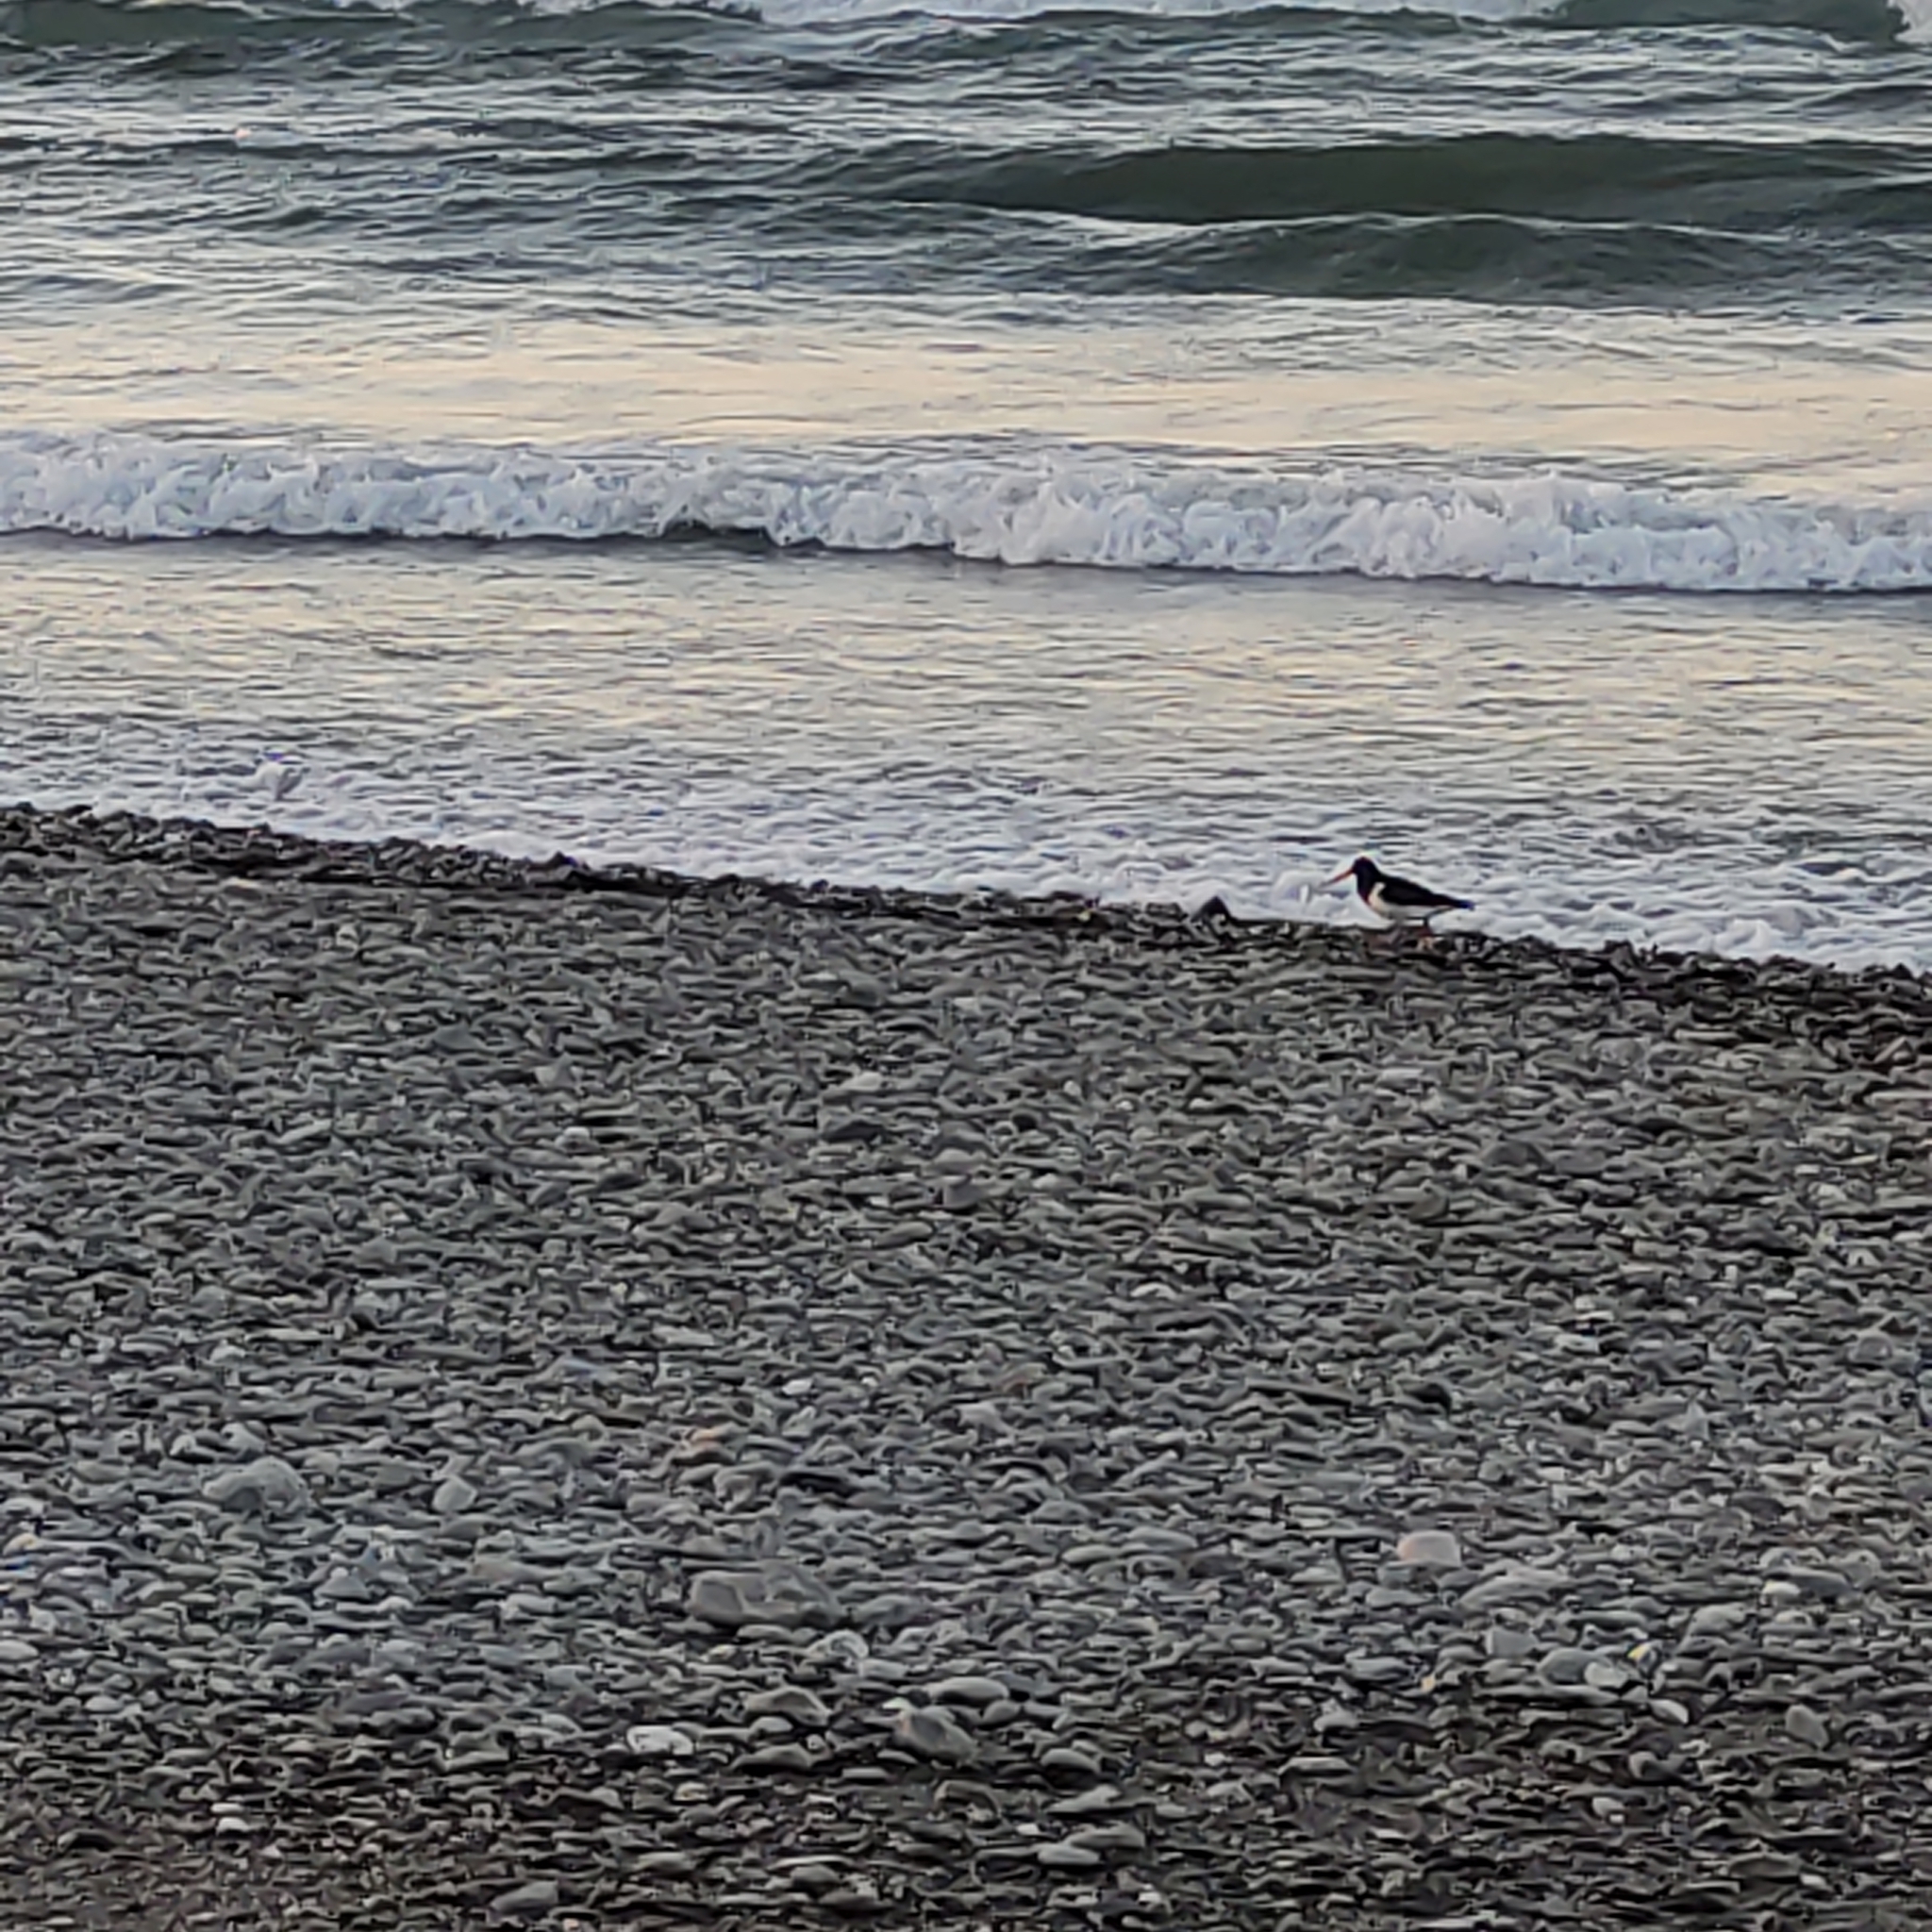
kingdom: Animalia
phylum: Chordata
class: Aves
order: Charadriiformes
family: Haematopodidae
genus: Haematopus
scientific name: Haematopus finschi
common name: South island oystercatcher
